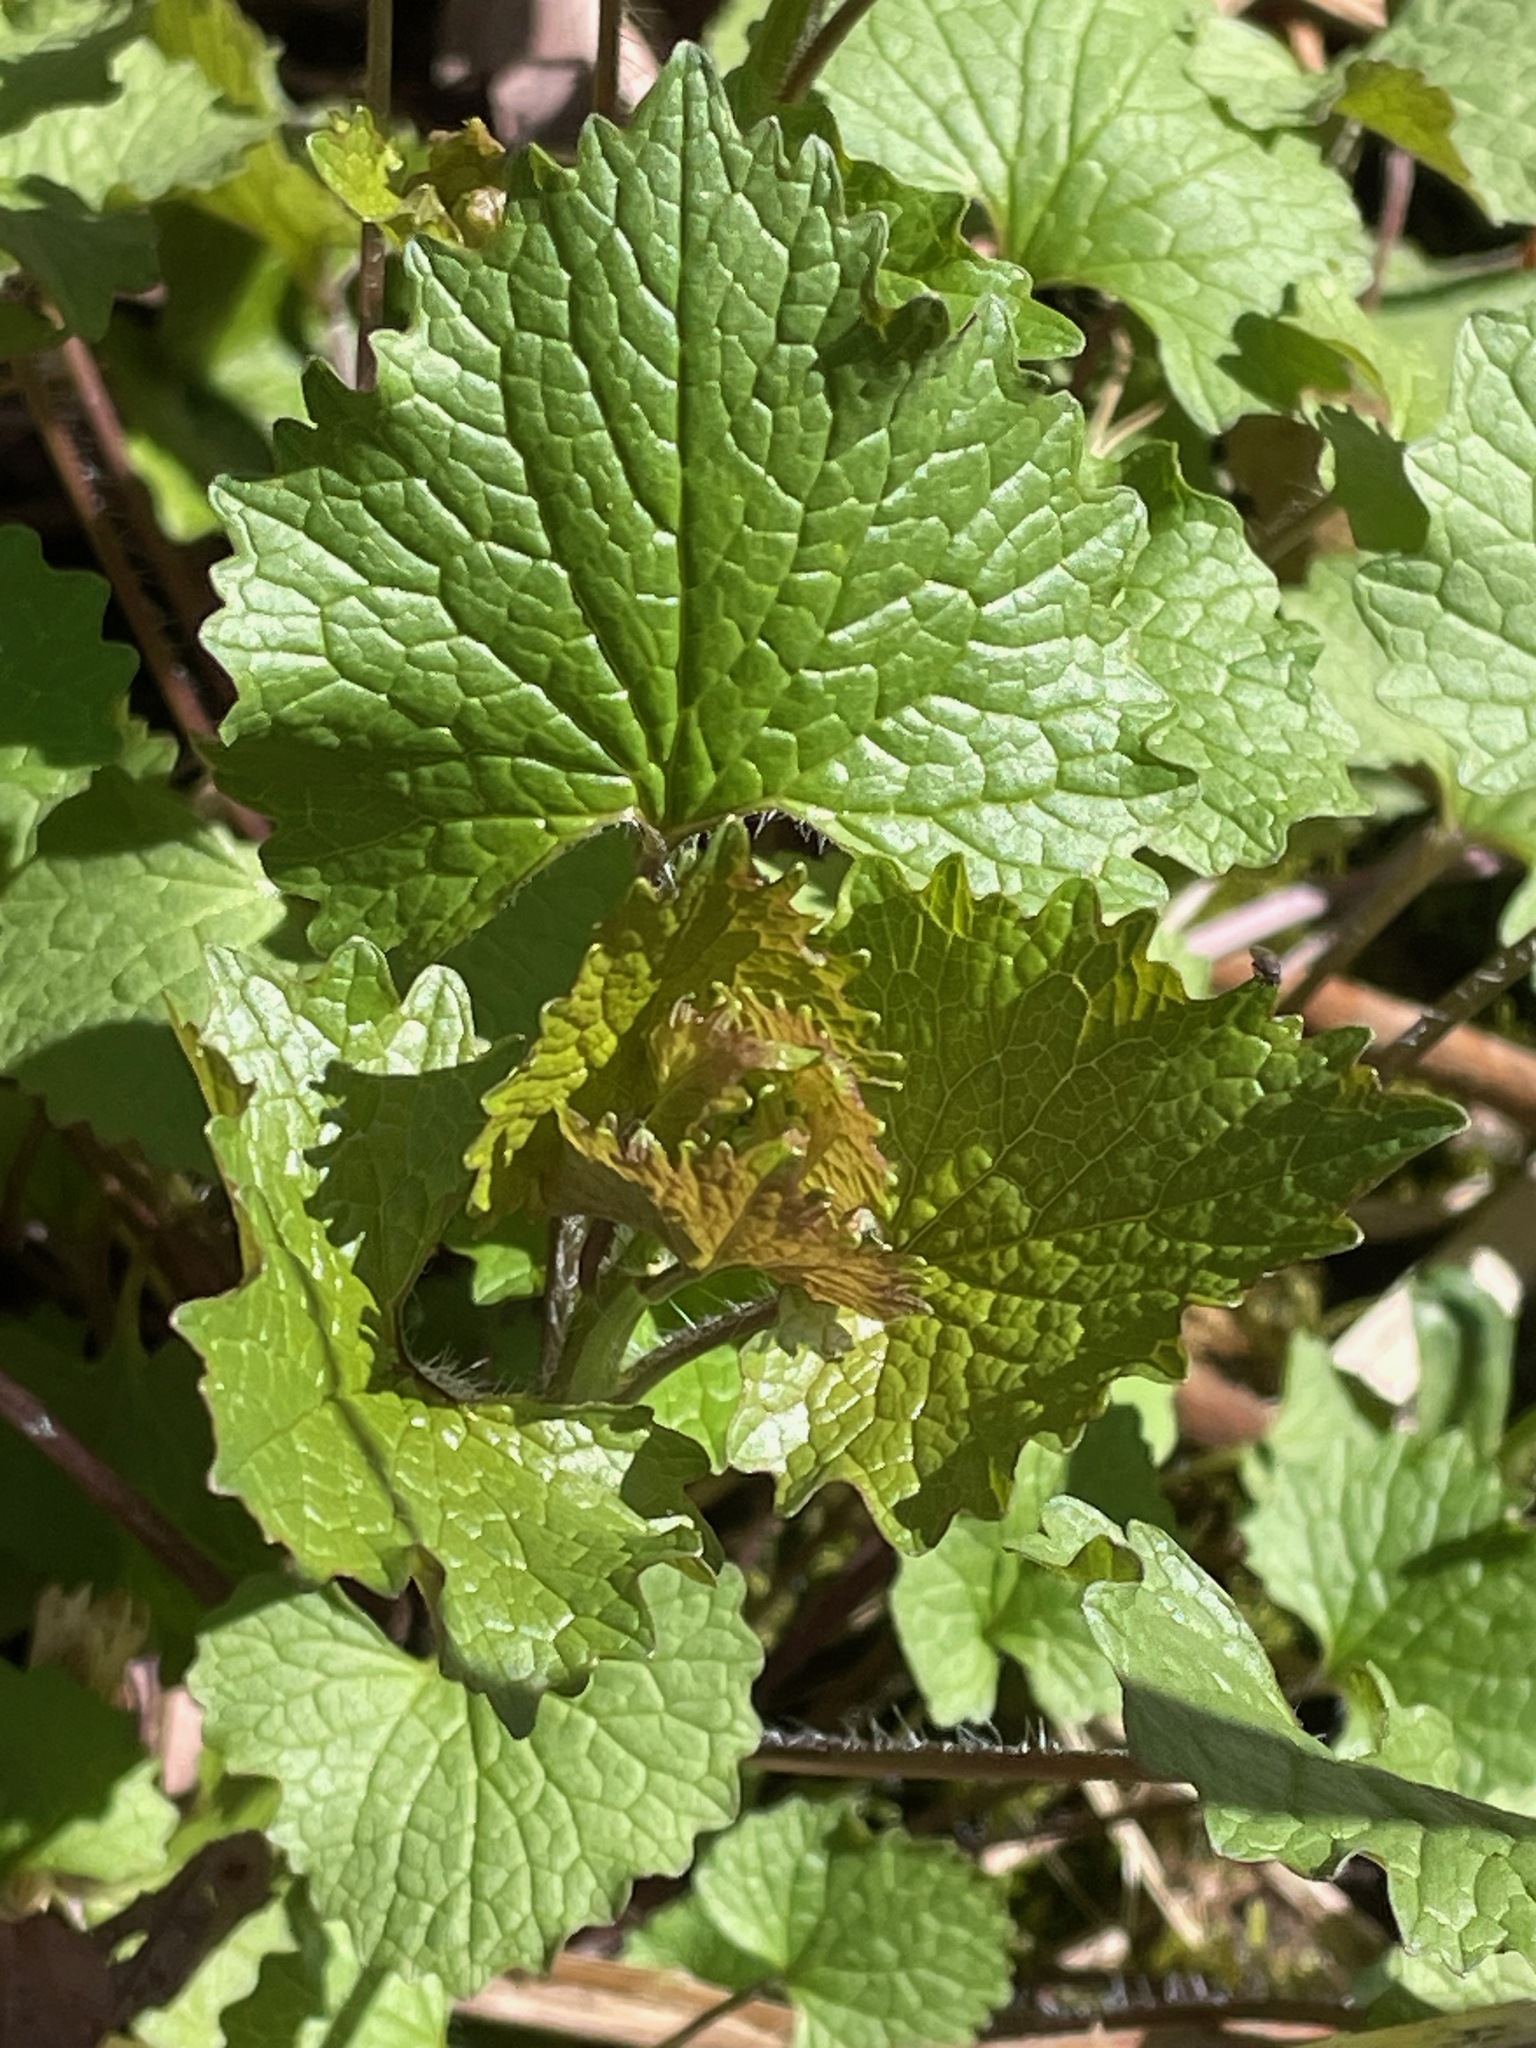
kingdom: Plantae
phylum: Tracheophyta
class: Magnoliopsida
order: Brassicales
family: Brassicaceae
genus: Alliaria
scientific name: Alliaria petiolata
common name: Garlic mustard
